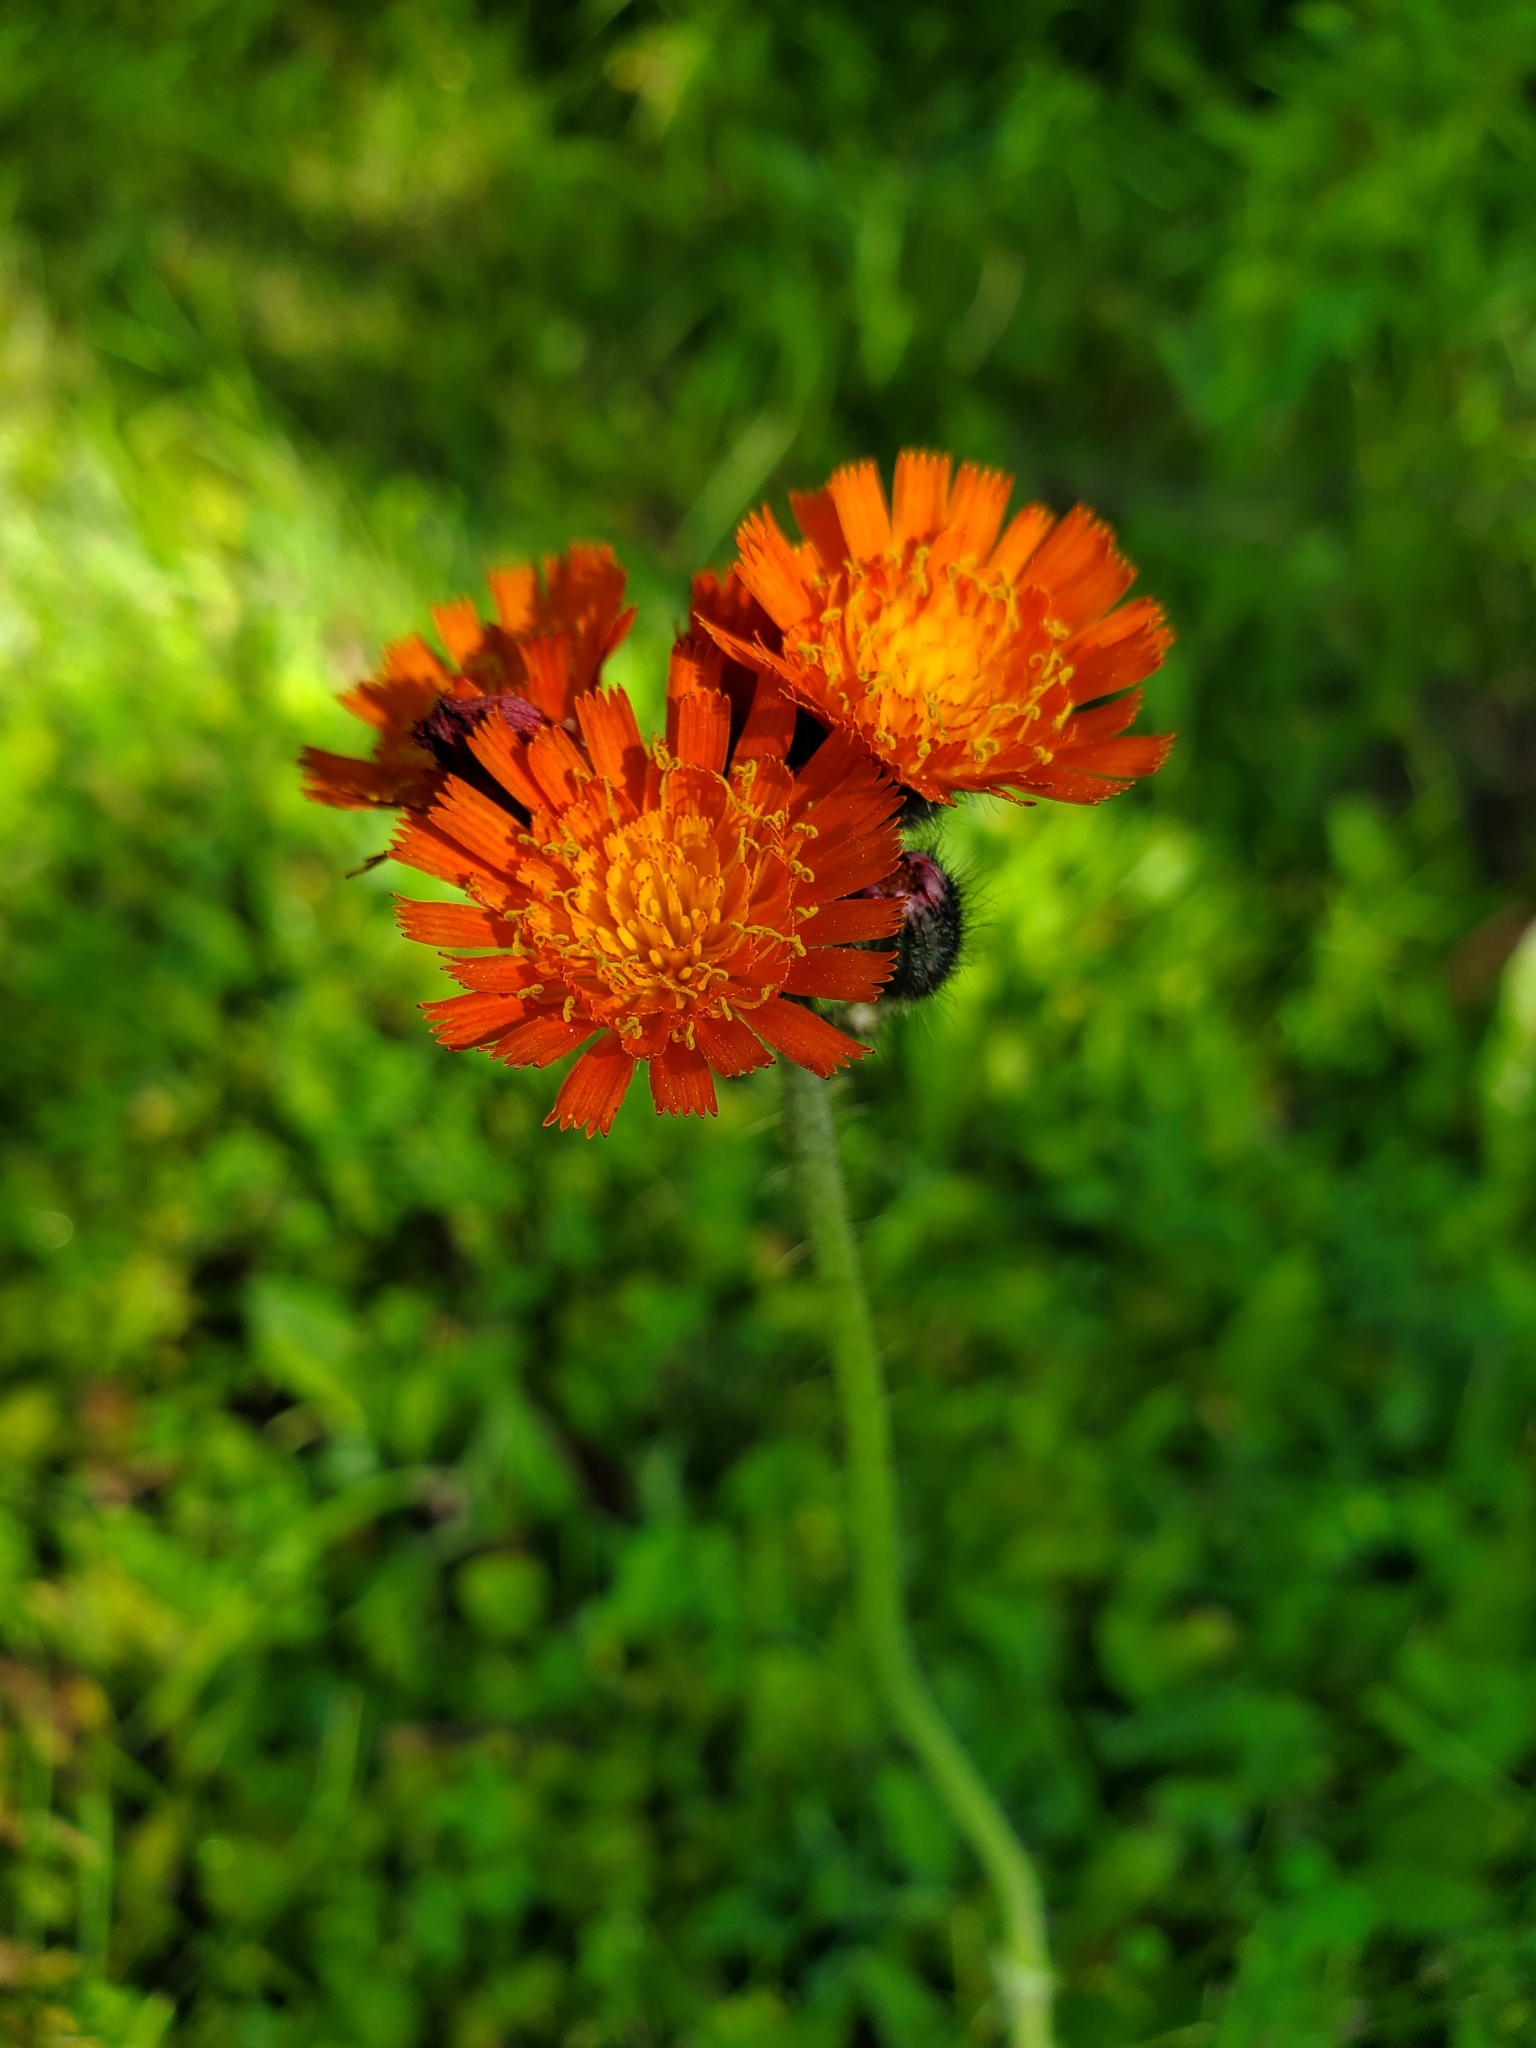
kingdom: Plantae
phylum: Tracheophyta
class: Magnoliopsida
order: Asterales
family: Asteraceae
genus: Pilosella
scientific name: Pilosella aurantiaca
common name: Fox-and-cubs
